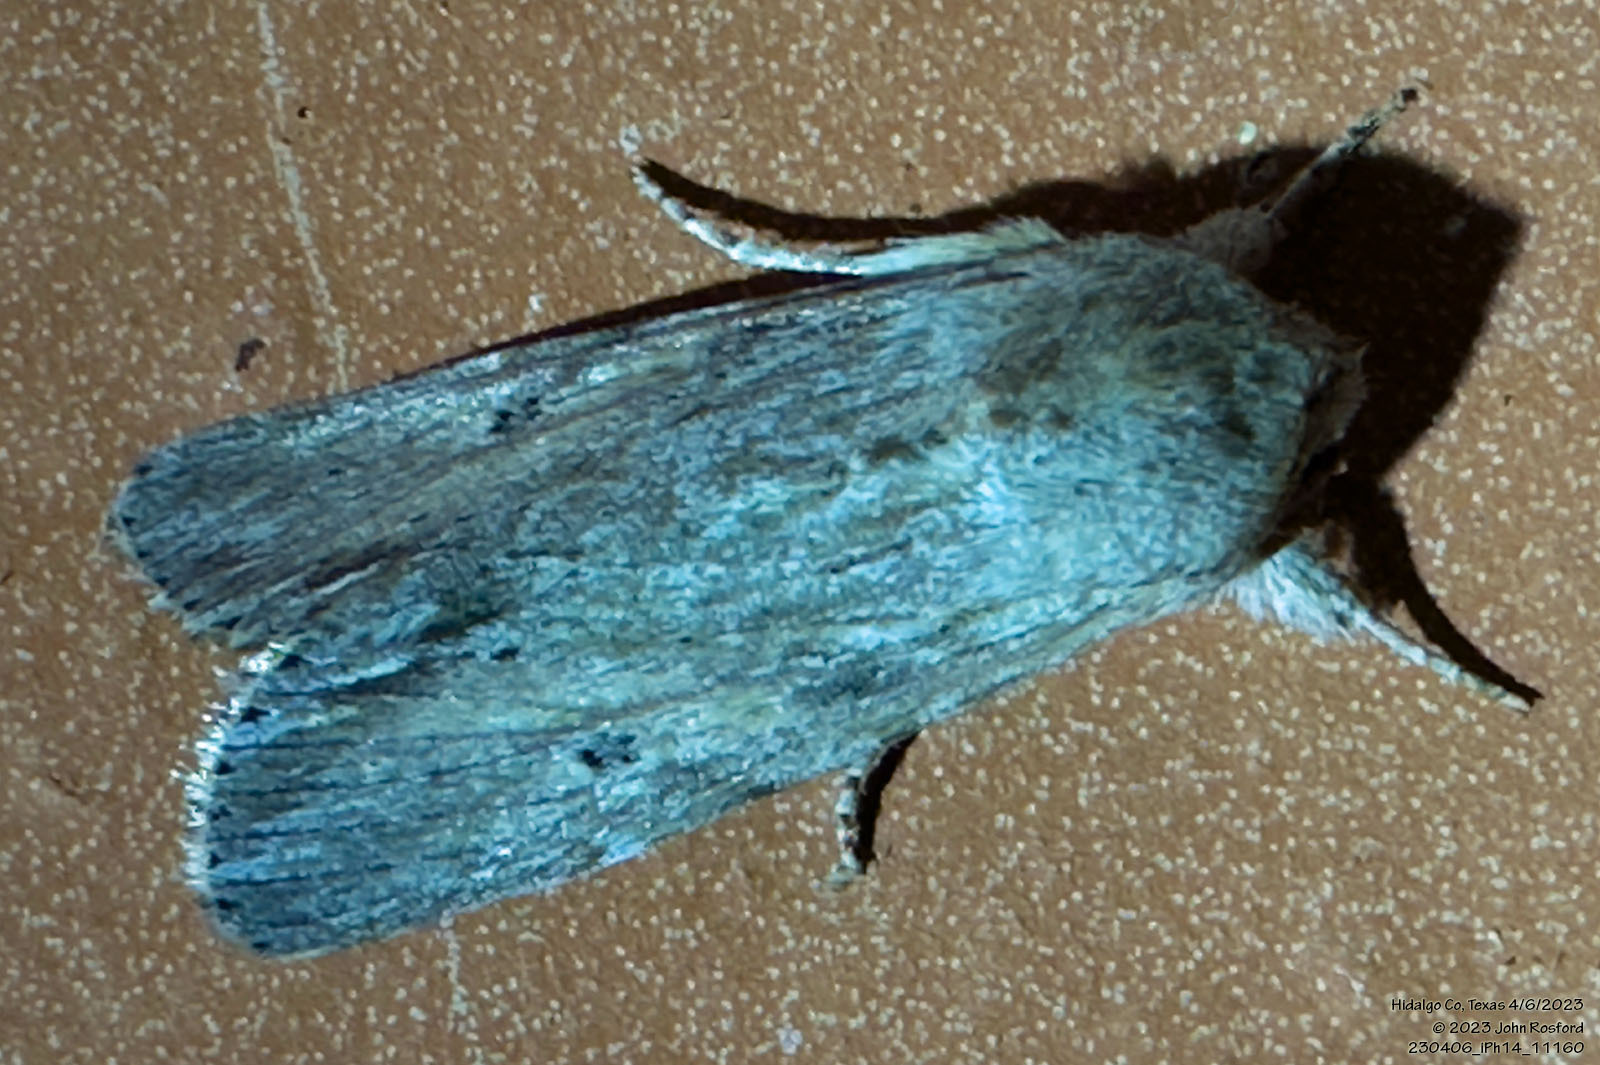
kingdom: Animalia
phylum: Arthropoda
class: Insecta
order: Lepidoptera
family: Noctuidae
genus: Spodoptera
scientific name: Spodoptera albula
